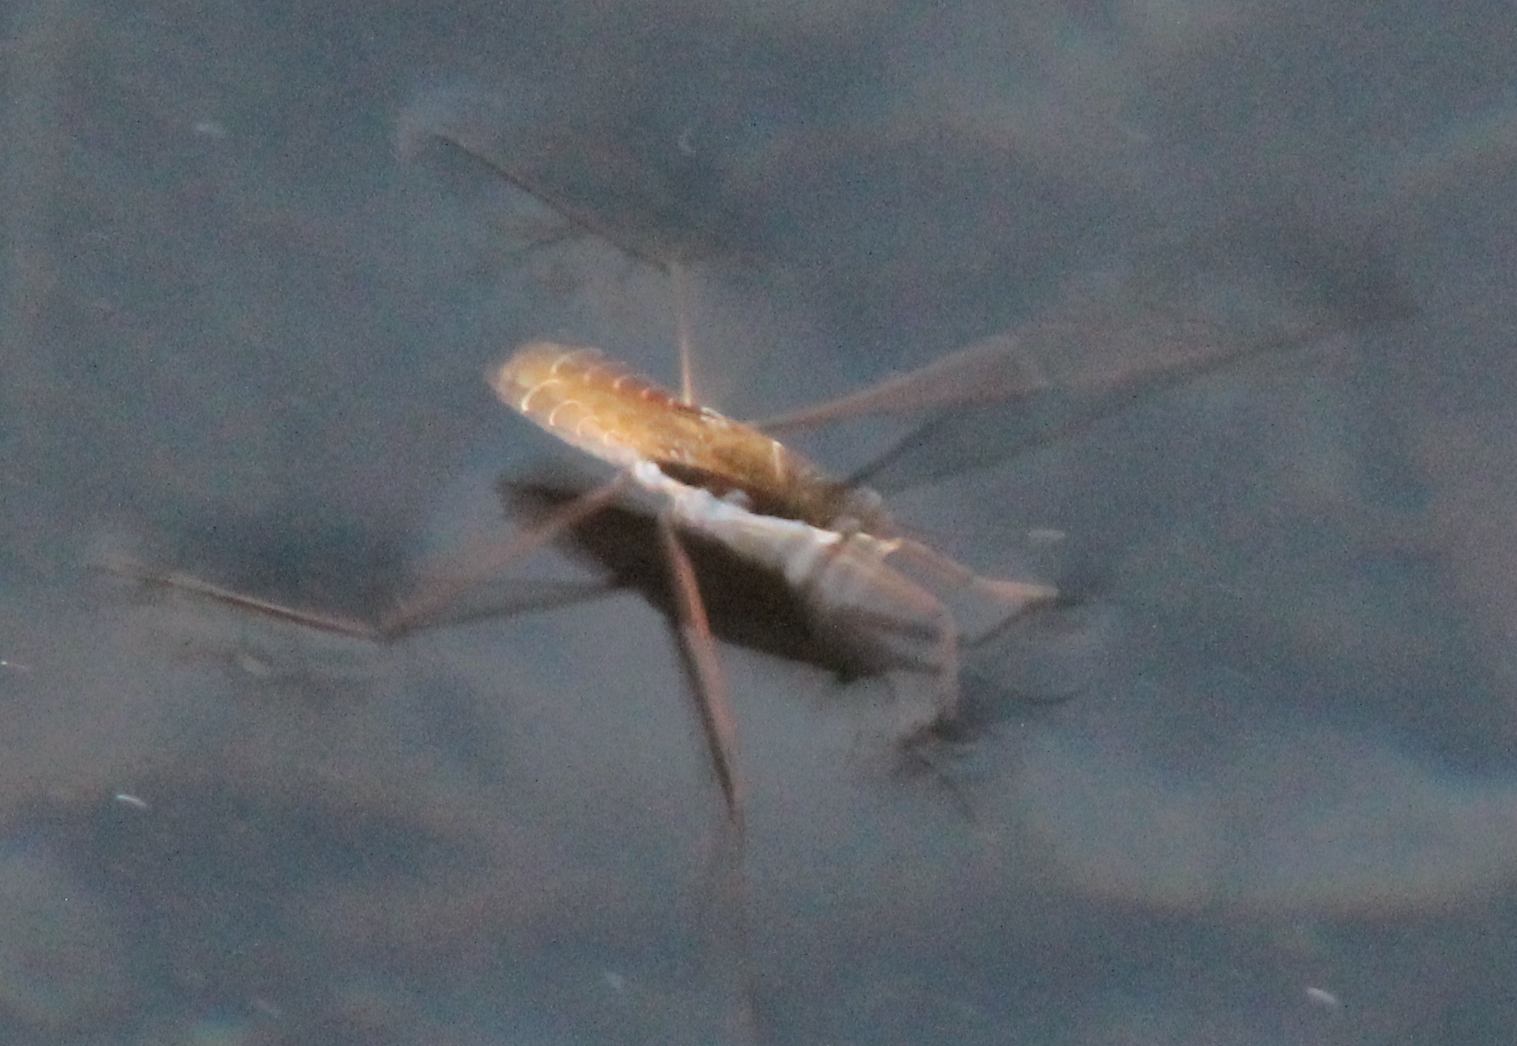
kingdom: Animalia
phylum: Arthropoda
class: Insecta
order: Hemiptera
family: Gerridae
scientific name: Gerridae
